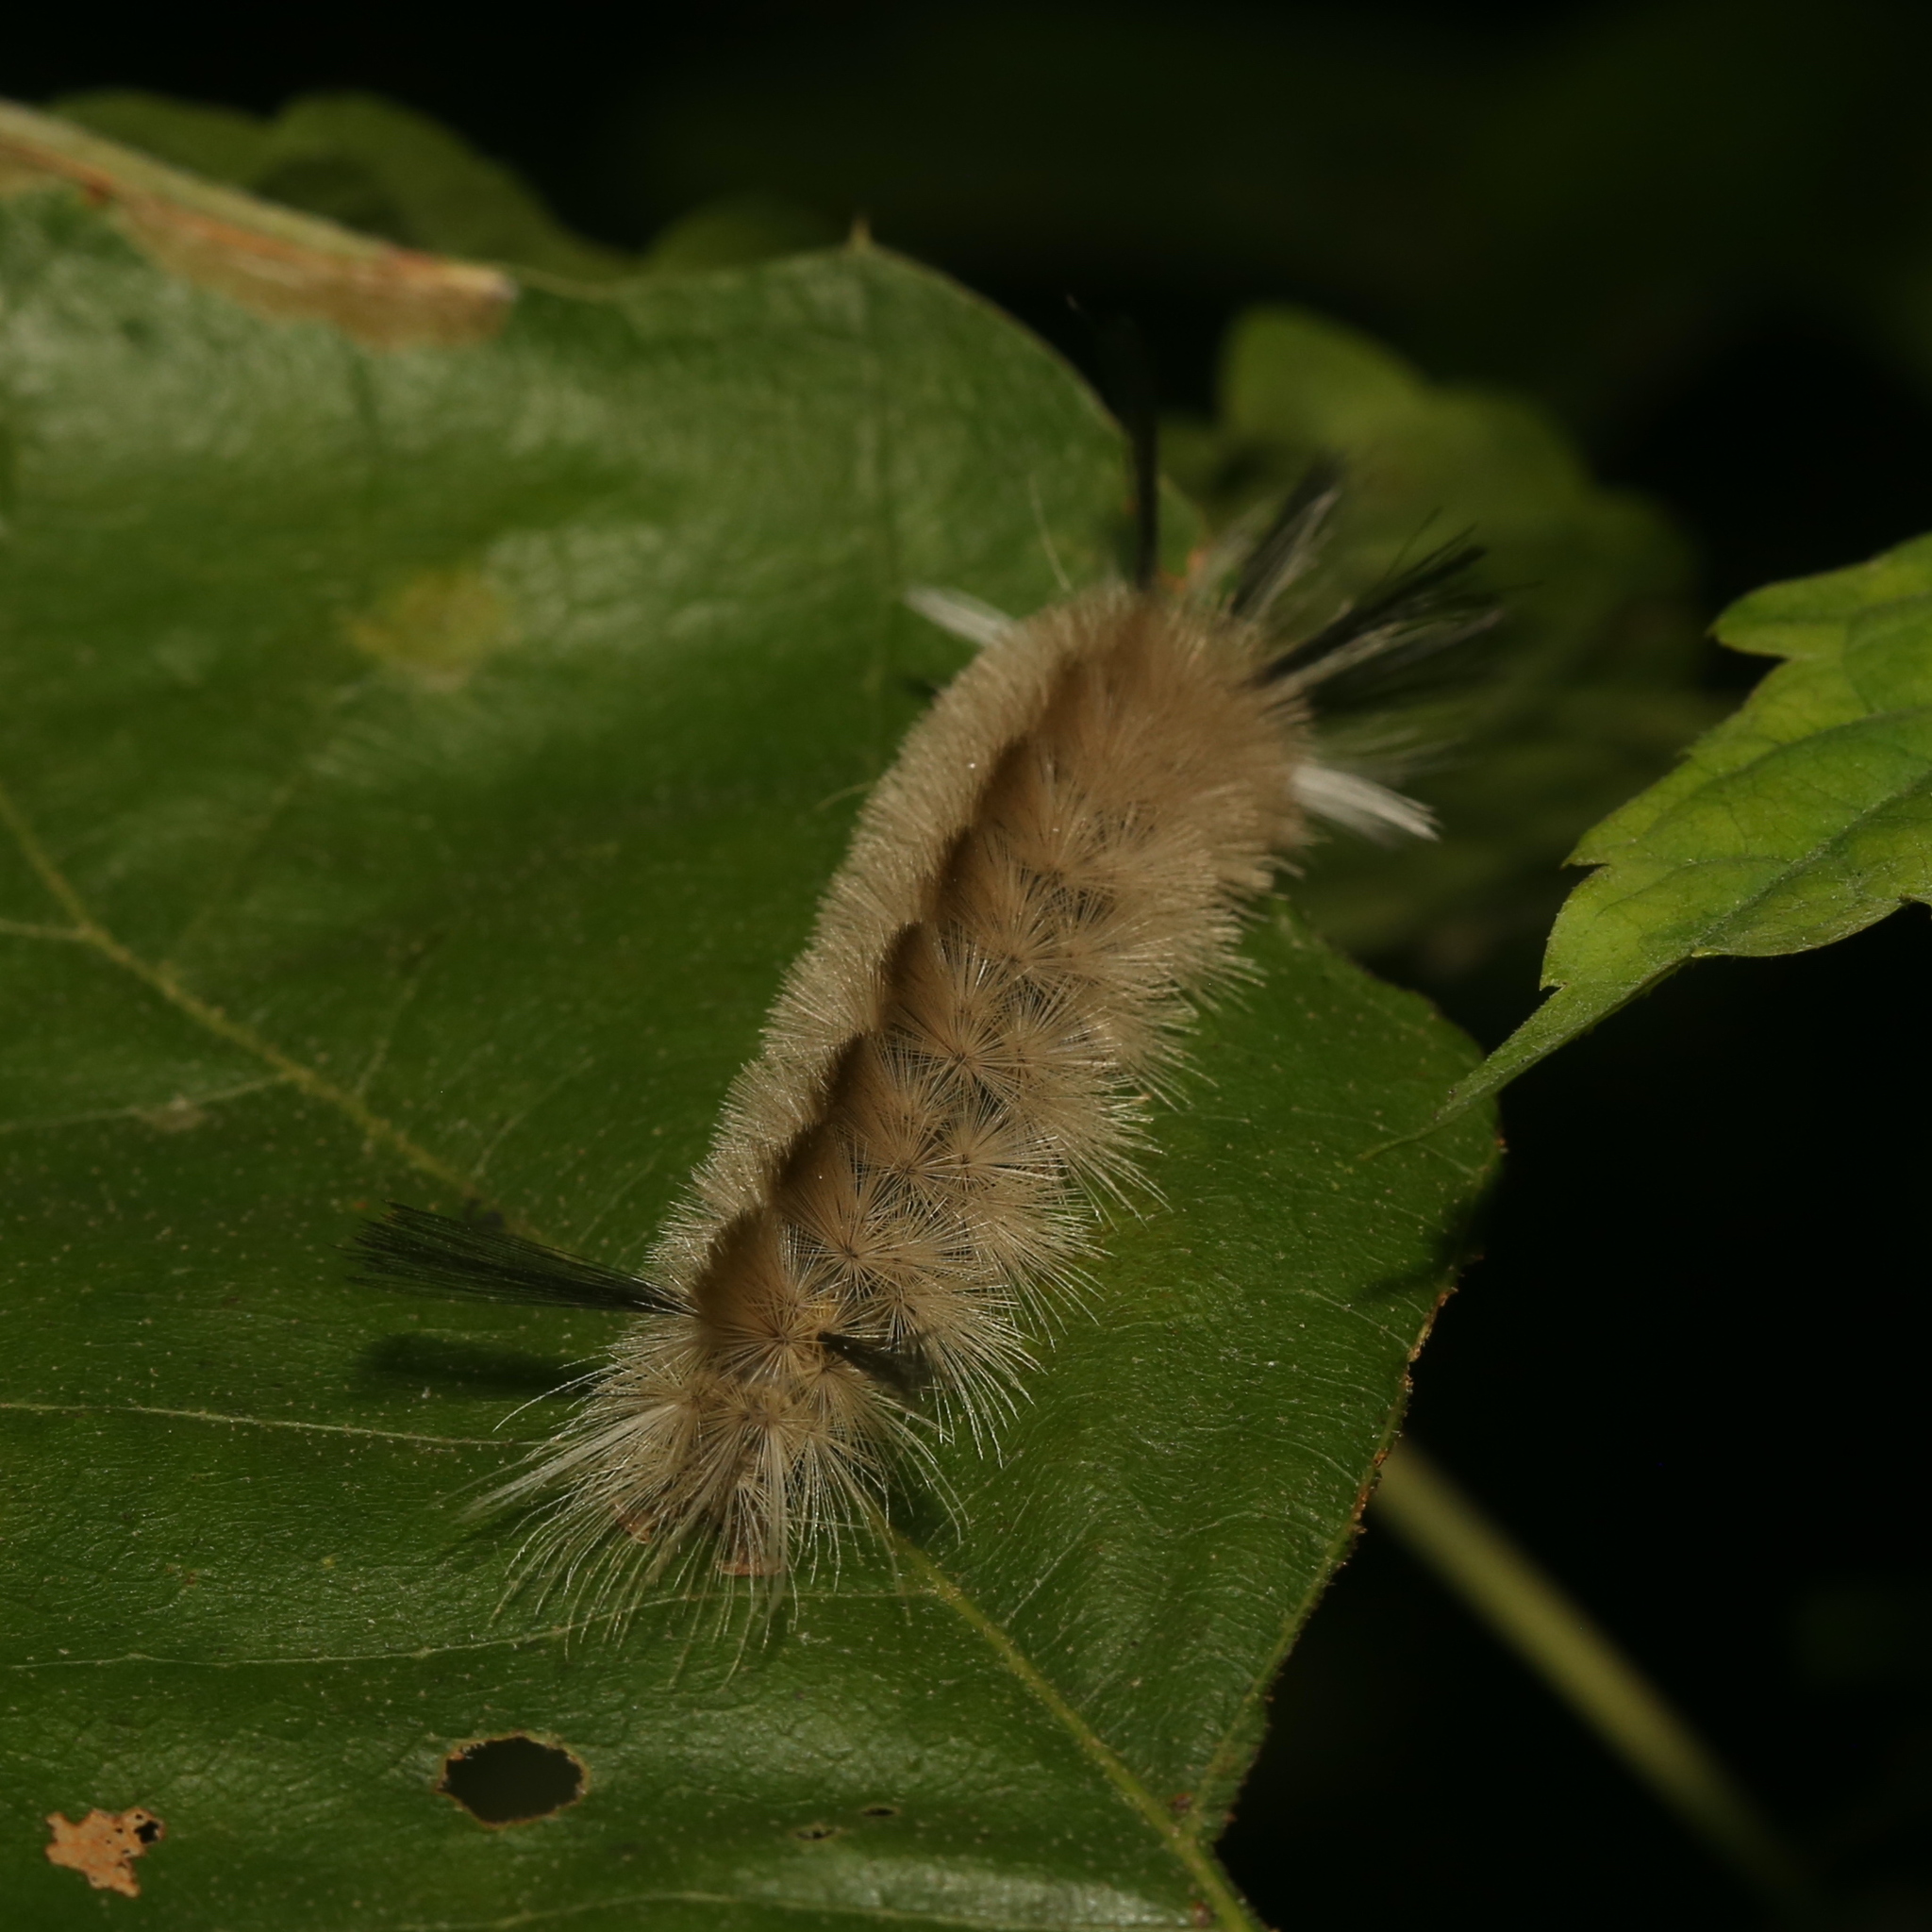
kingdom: Animalia
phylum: Arthropoda
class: Insecta
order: Lepidoptera
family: Erebidae
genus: Halysidota
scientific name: Halysidota tessellaris
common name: Banded tussock moth
